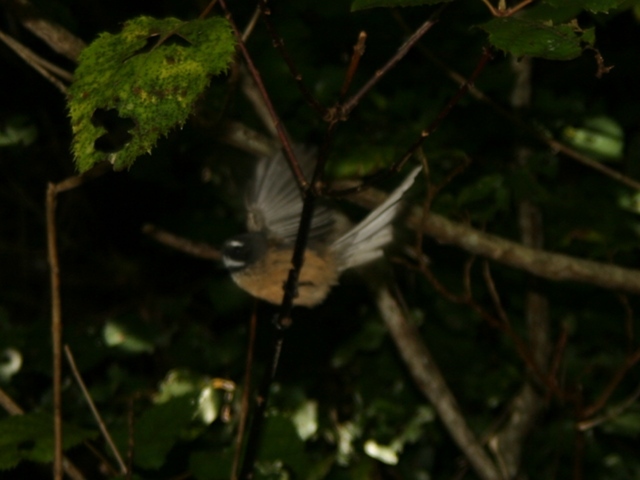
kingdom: Animalia
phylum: Chordata
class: Aves
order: Passeriformes
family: Rhipiduridae
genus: Rhipidura
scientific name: Rhipidura fuliginosa
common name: New zealand fantail
